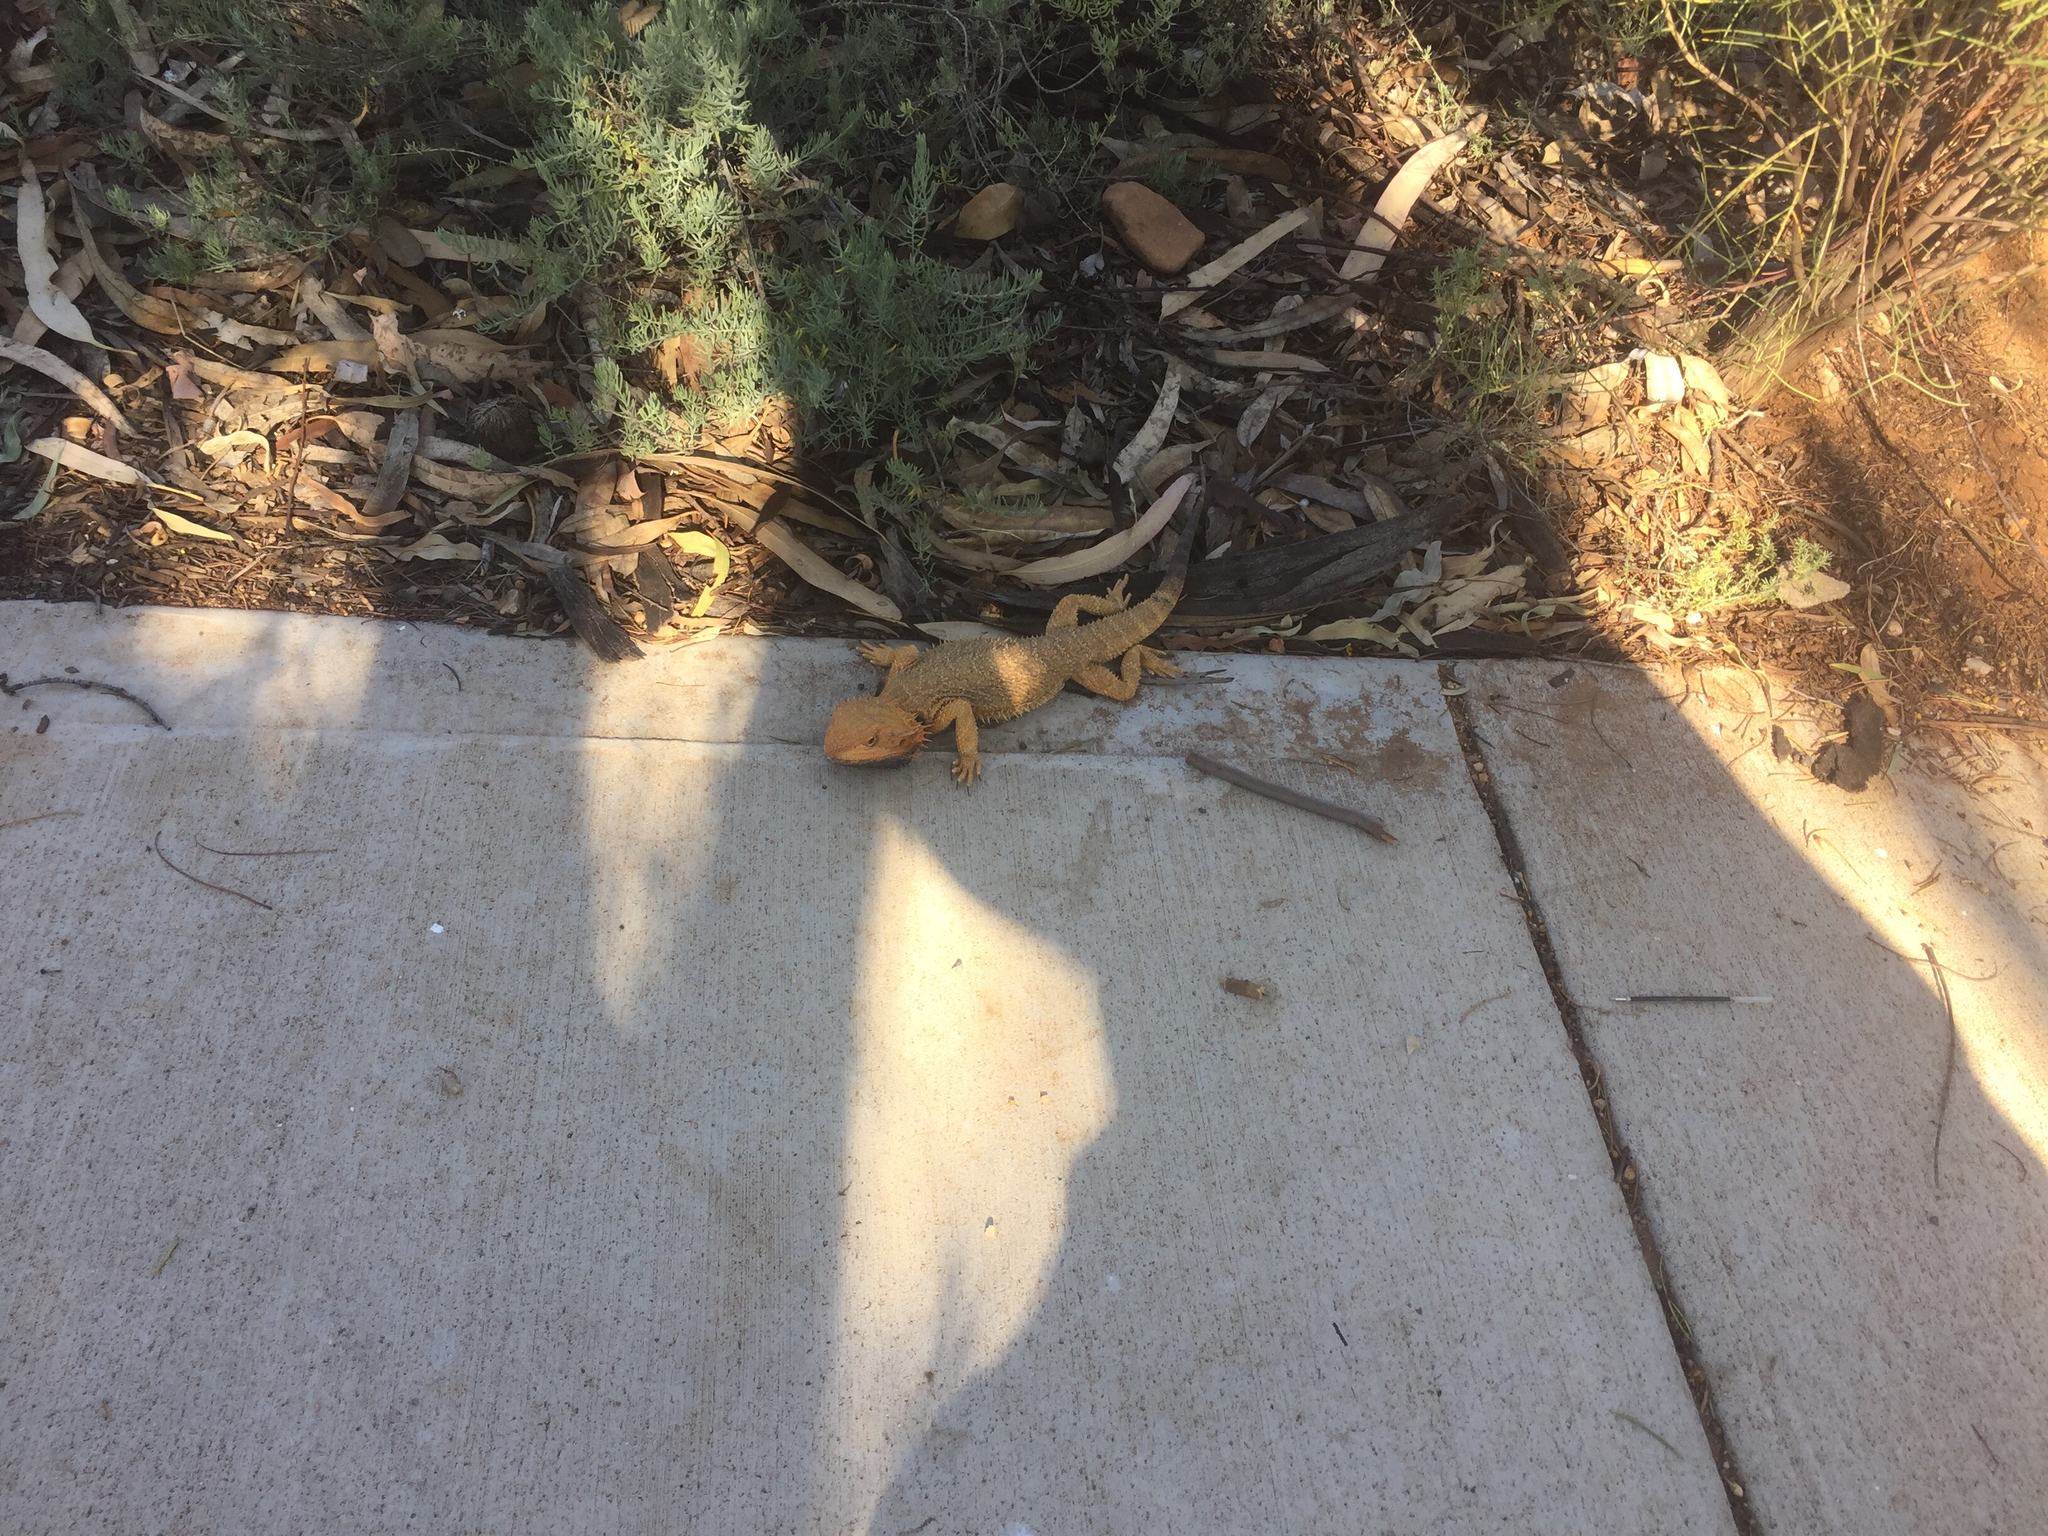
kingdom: Animalia
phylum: Chordata
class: Squamata
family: Agamidae
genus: Pogona
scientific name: Pogona vitticeps
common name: Central bearded dragon
